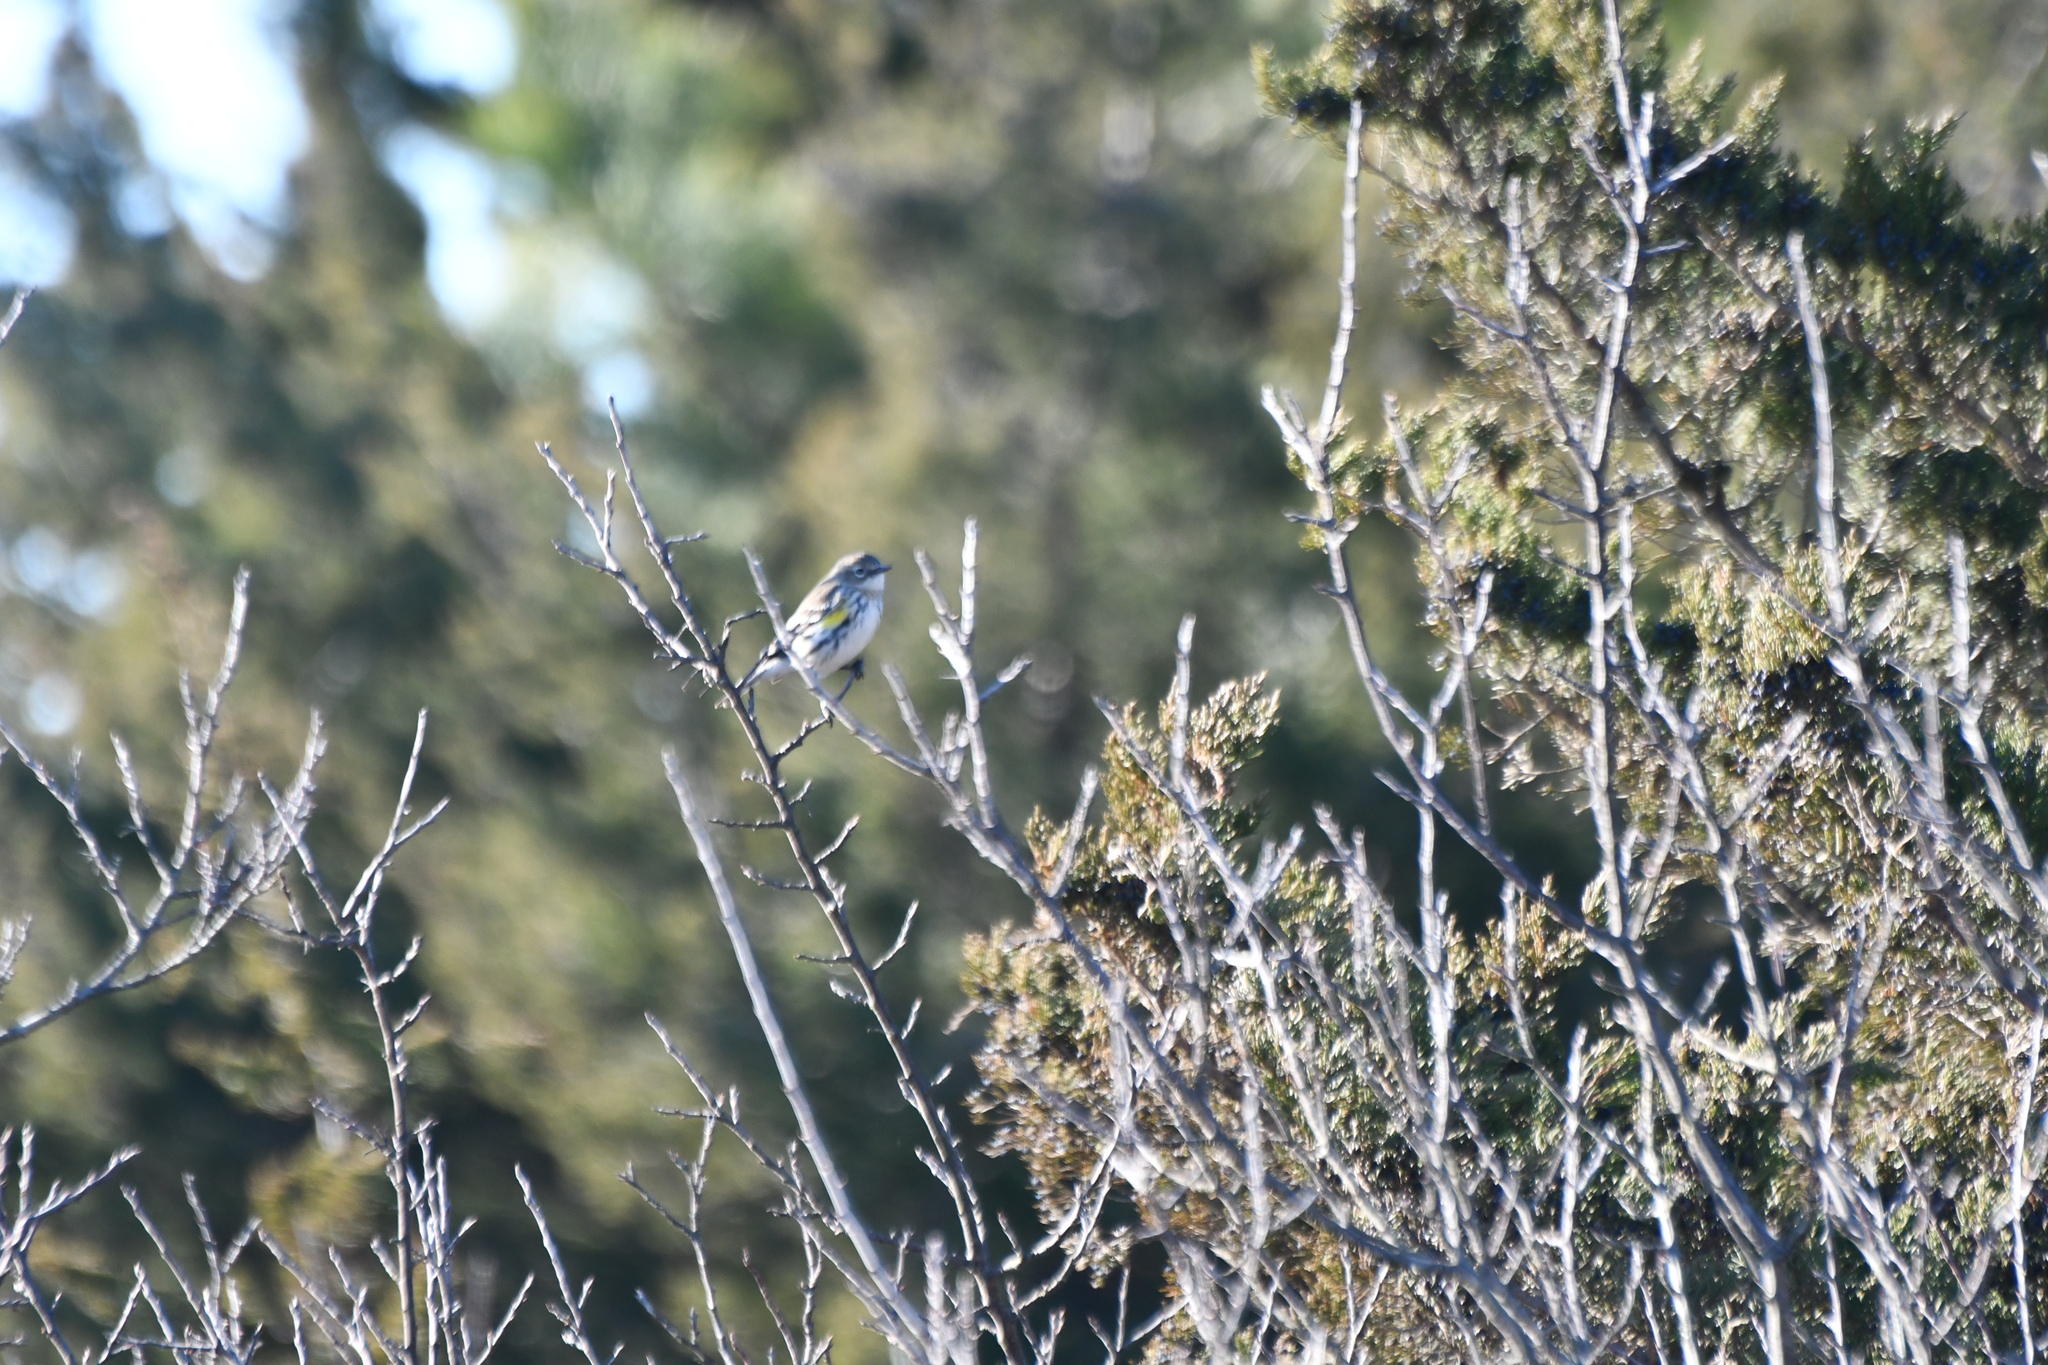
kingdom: Animalia
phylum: Chordata
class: Aves
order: Passeriformes
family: Parulidae
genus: Setophaga
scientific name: Setophaga coronata
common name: Myrtle warbler
